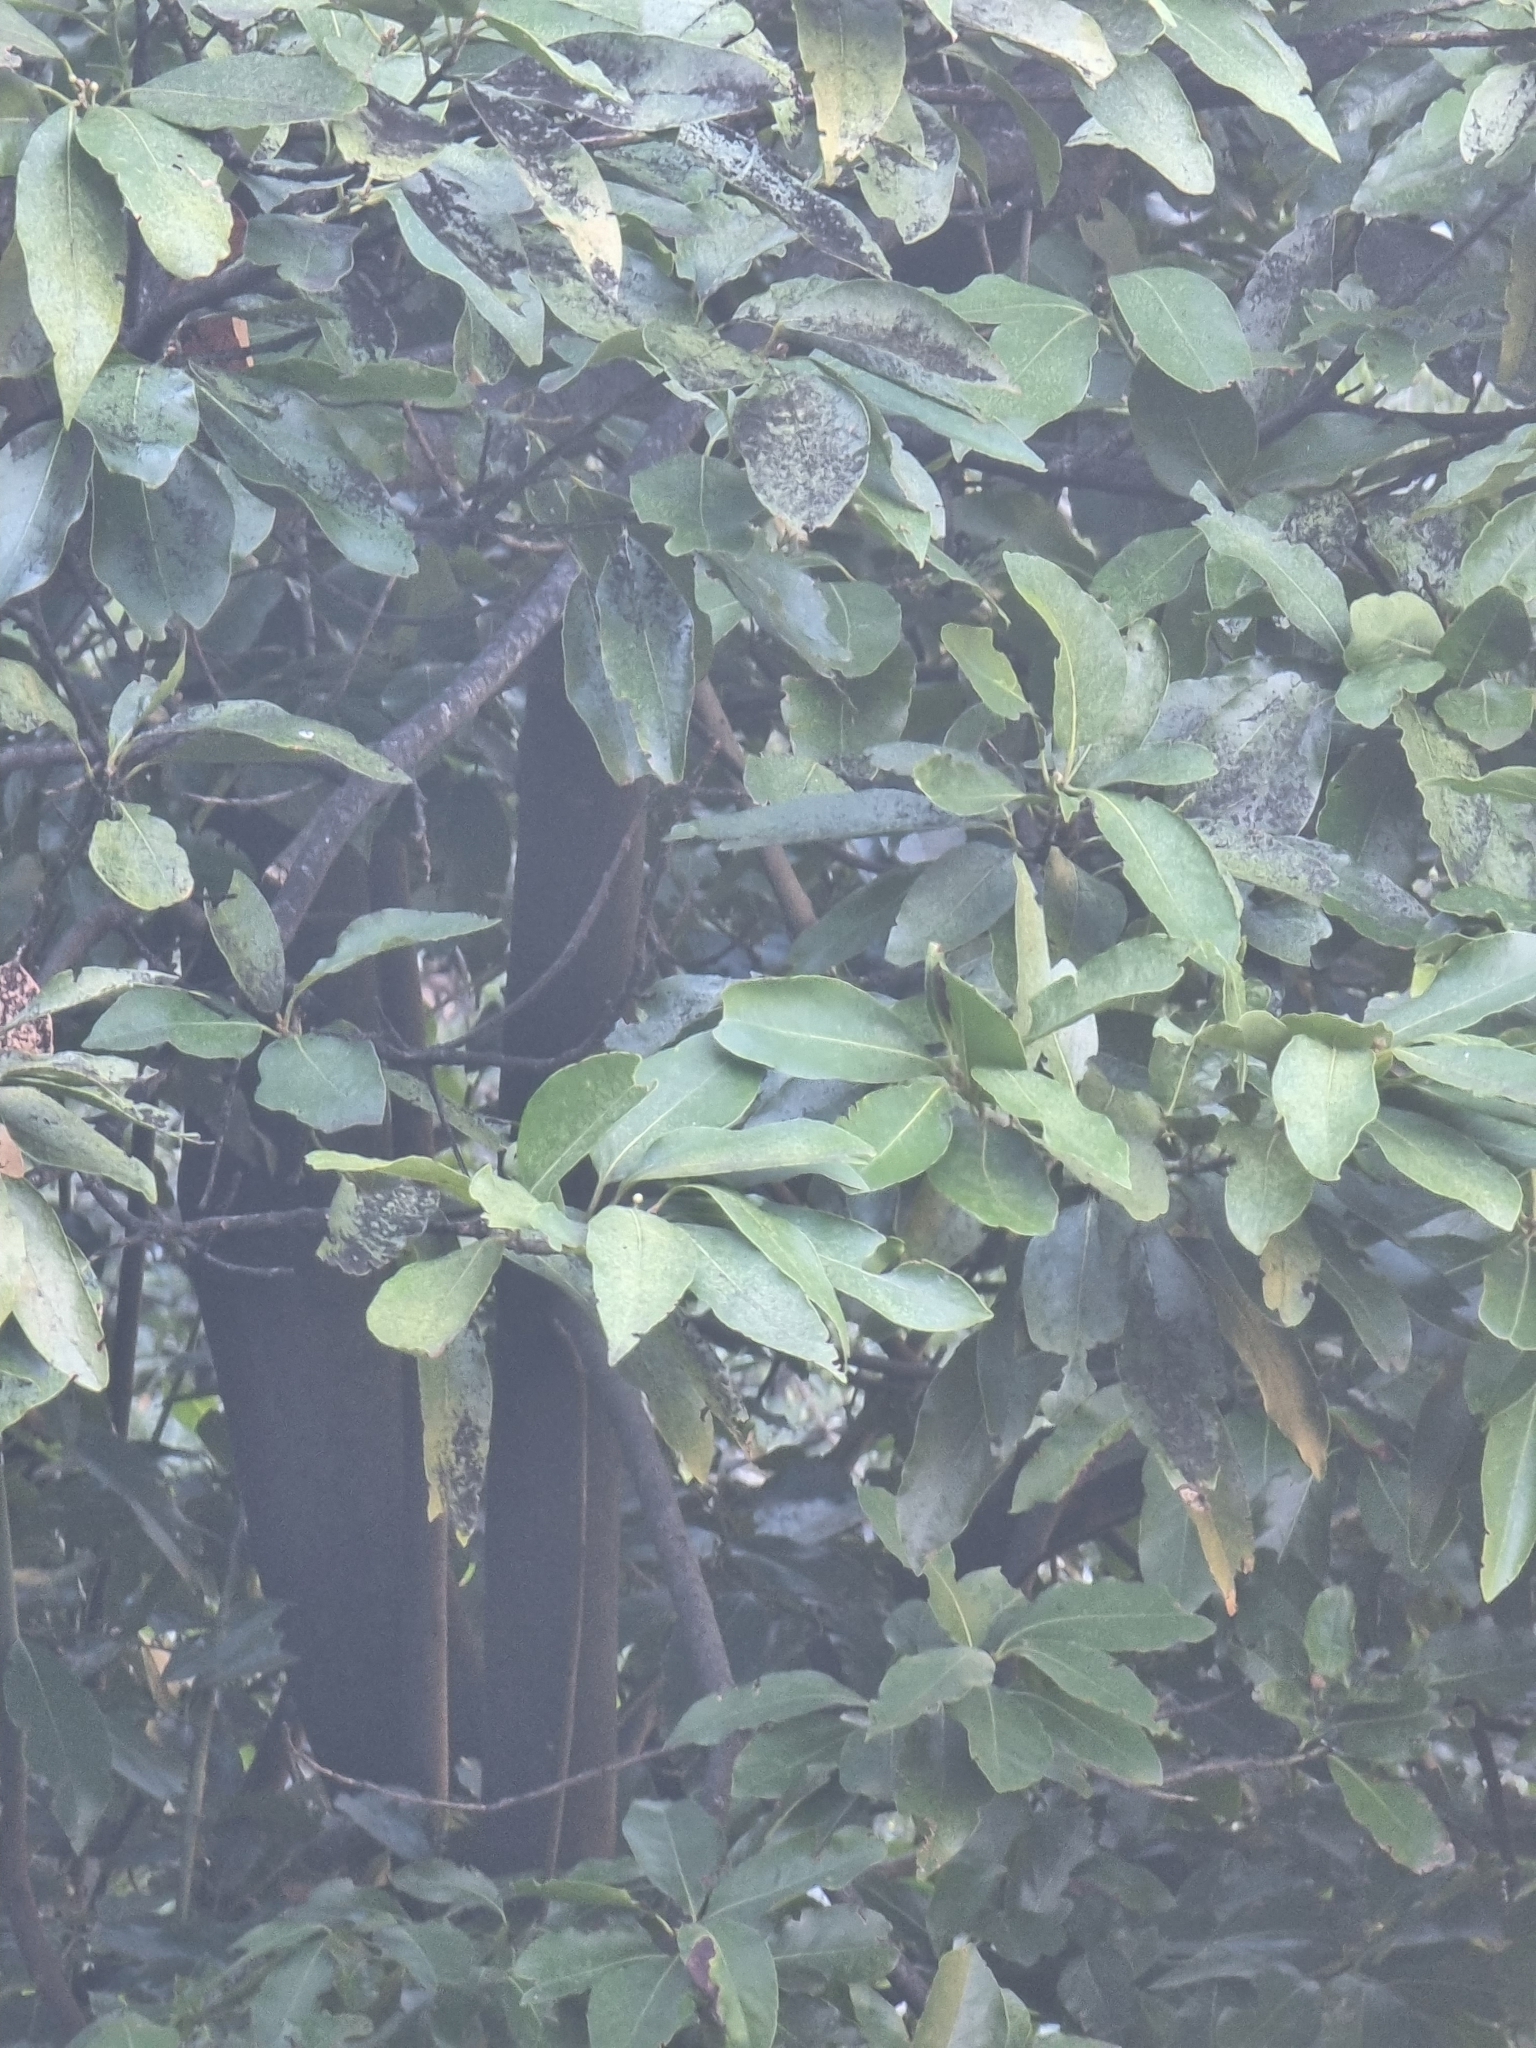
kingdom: Plantae
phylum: Tracheophyta
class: Magnoliopsida
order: Laurales
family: Lauraceae
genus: Laurus
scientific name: Laurus novocanariensis
